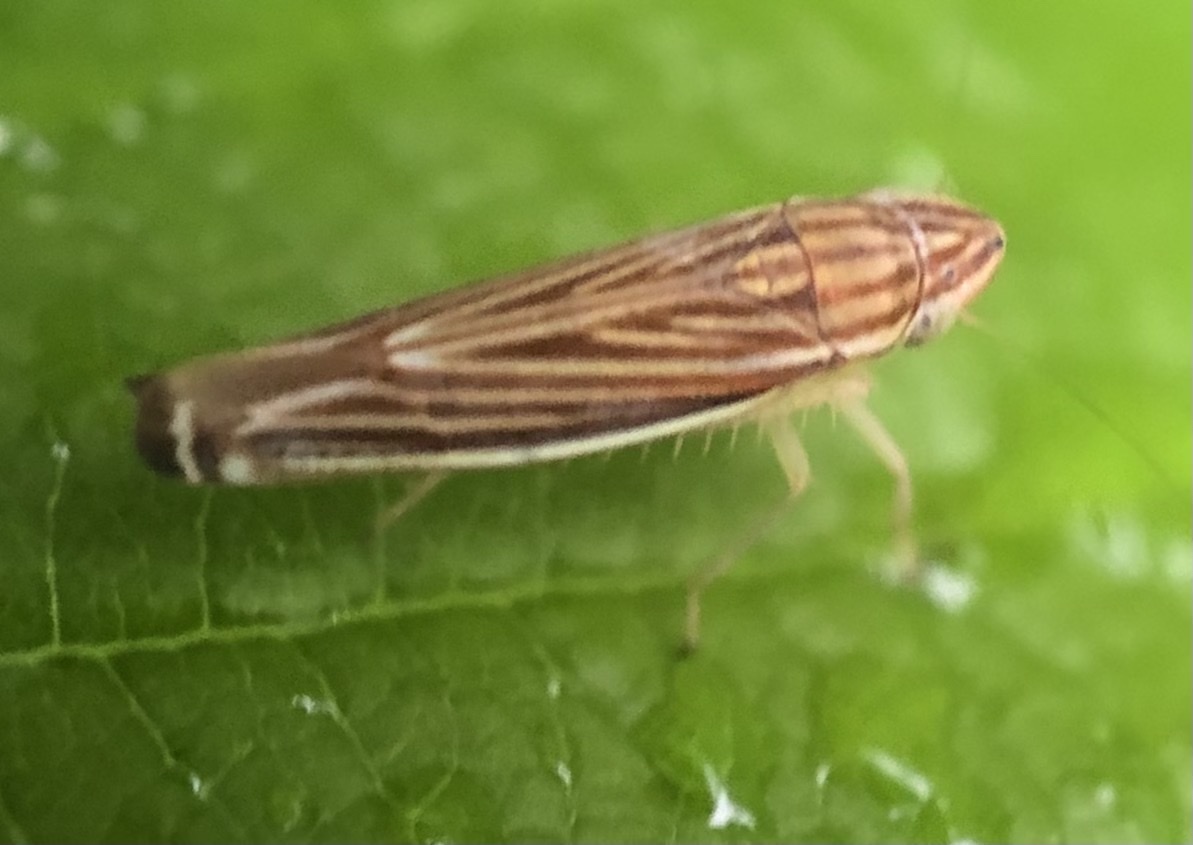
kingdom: Animalia
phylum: Arthropoda
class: Insecta
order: Hemiptera
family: Cicadellidae
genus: Sibovia
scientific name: Sibovia occatoria
